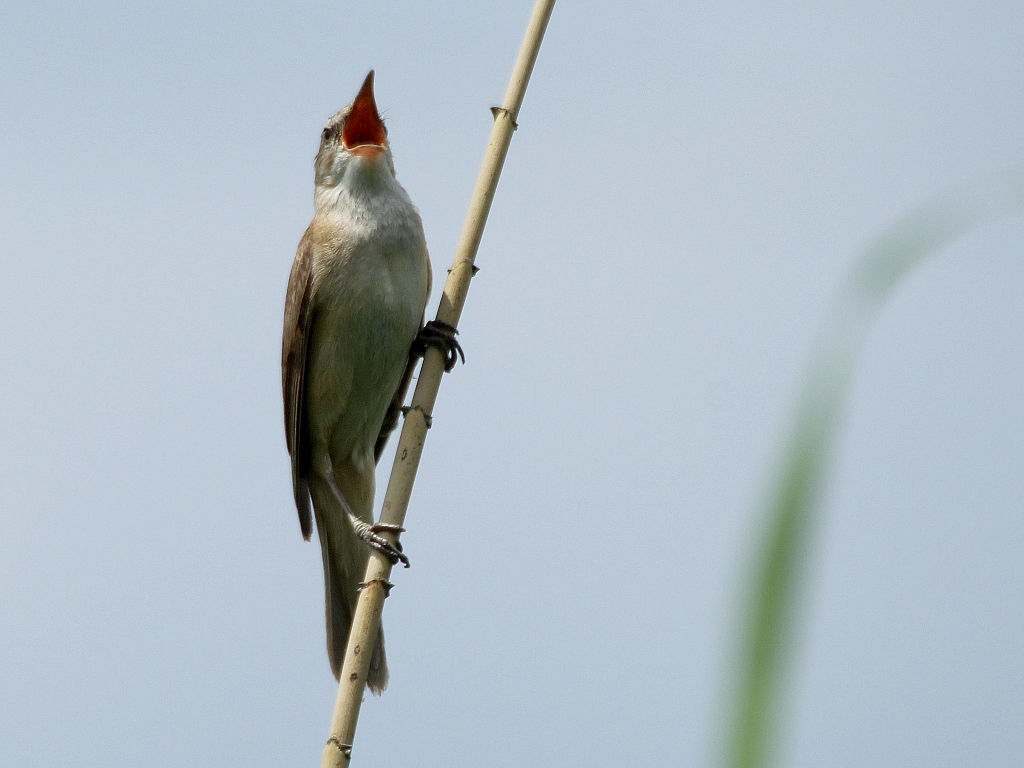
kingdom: Animalia
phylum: Chordata
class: Aves
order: Passeriformes
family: Acrocephalidae
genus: Acrocephalus
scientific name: Acrocephalus arundinaceus
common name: Great reed warbler
